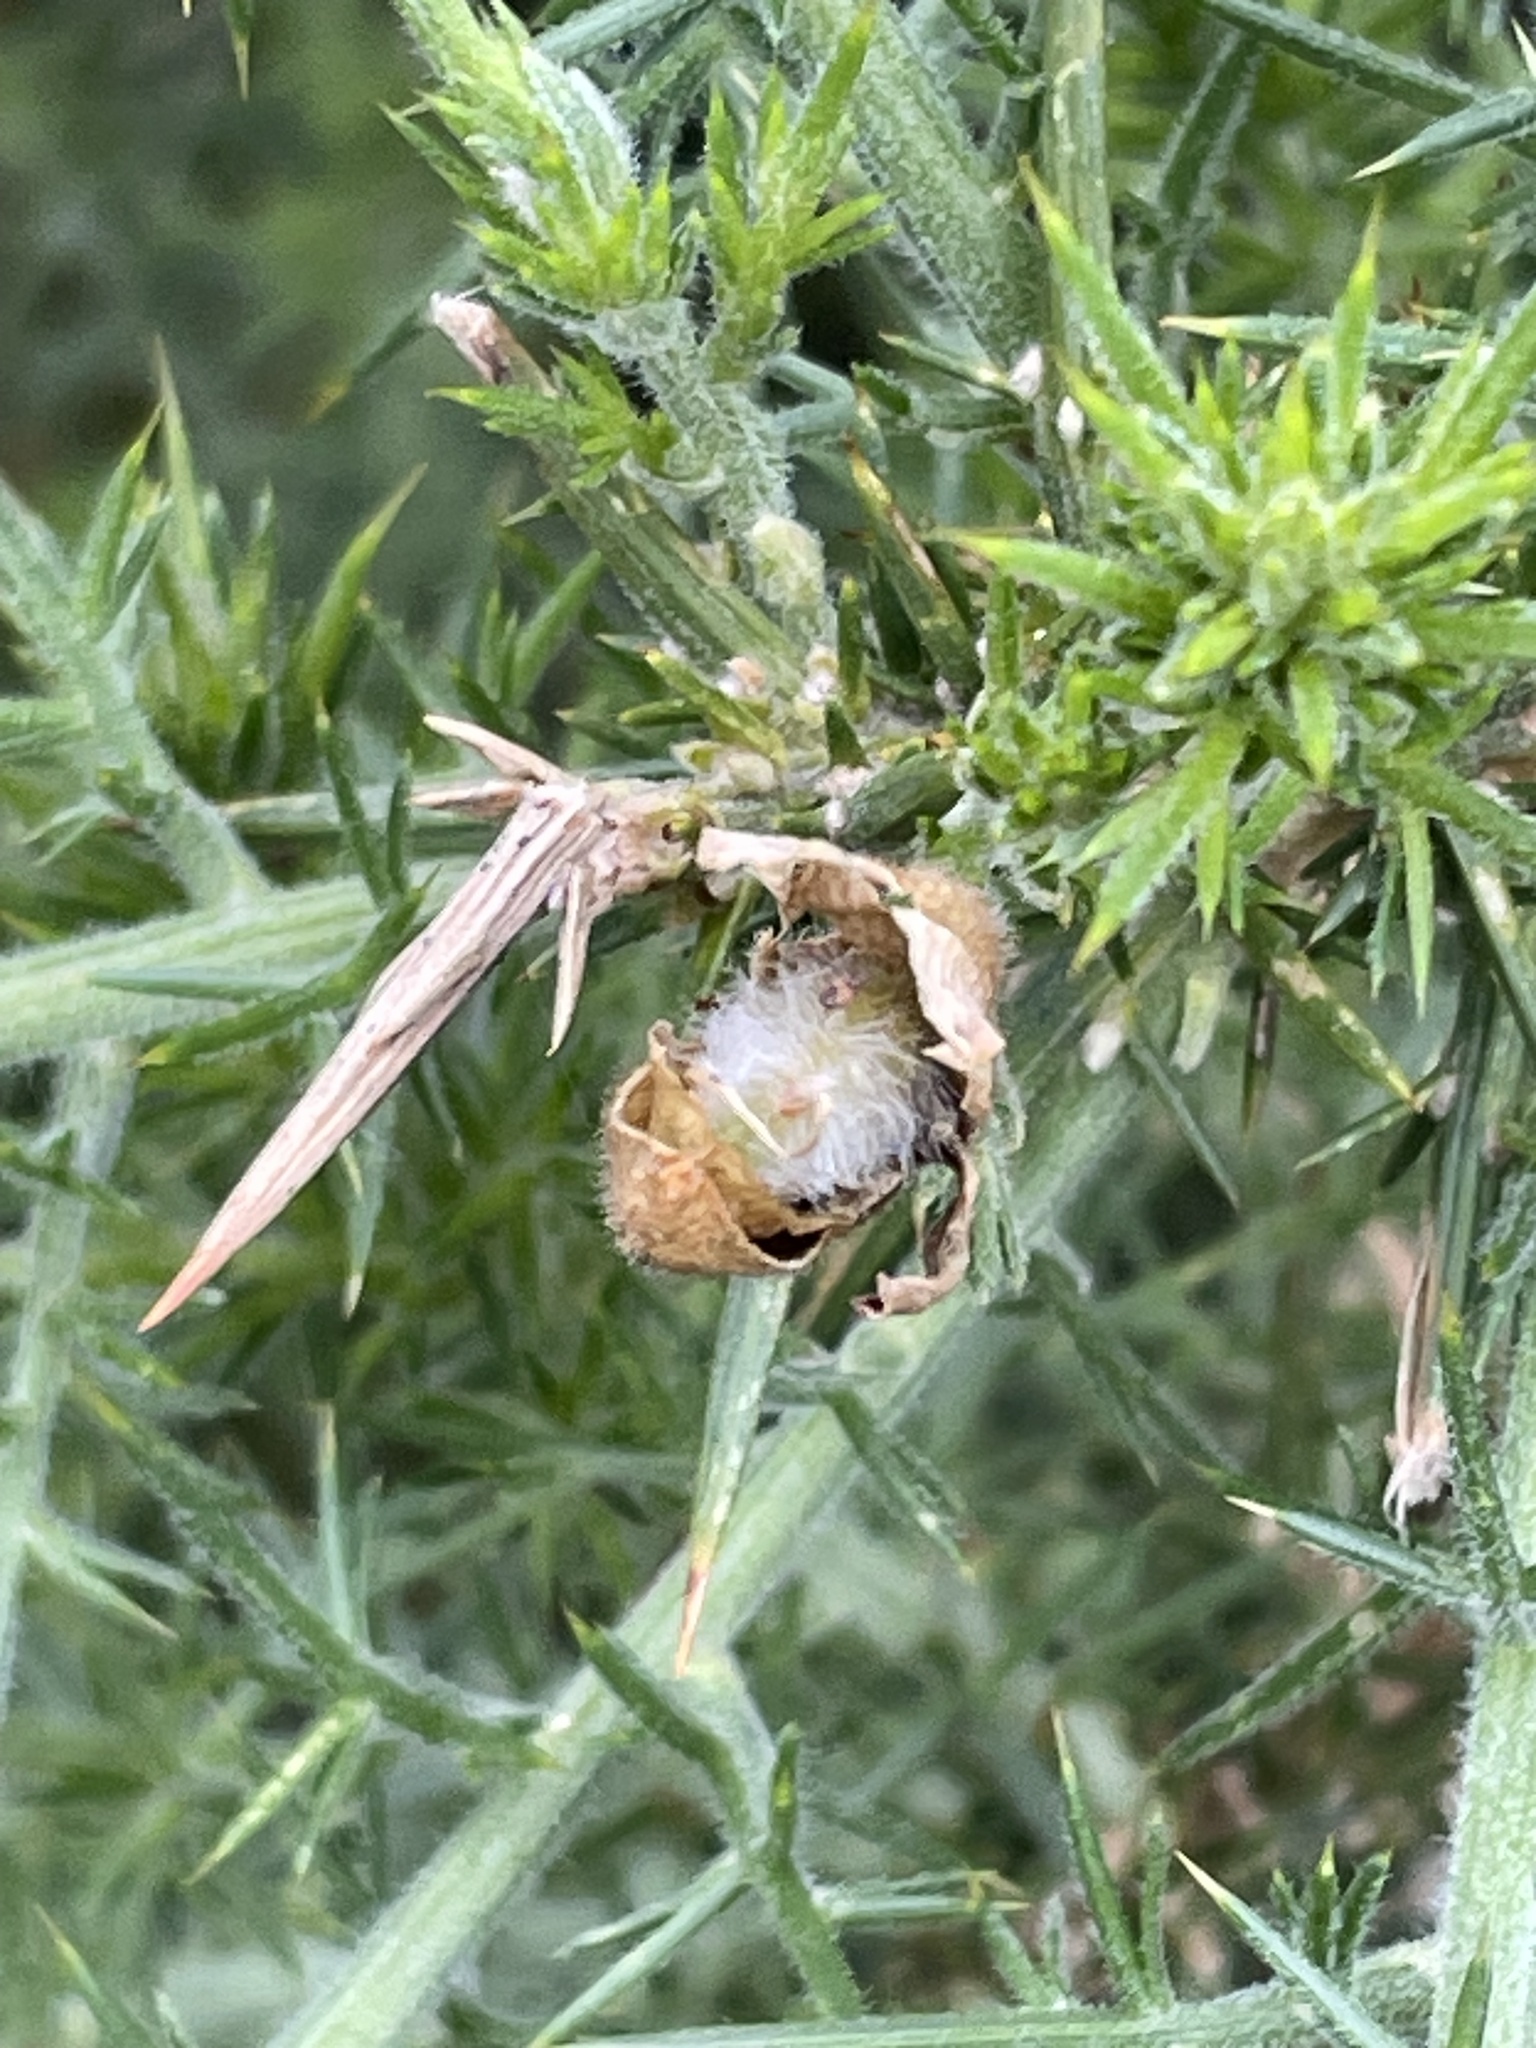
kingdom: Plantae
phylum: Tracheophyta
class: Magnoliopsida
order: Fabales
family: Fabaceae
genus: Ulex
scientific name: Ulex europaeus
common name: Common gorse
